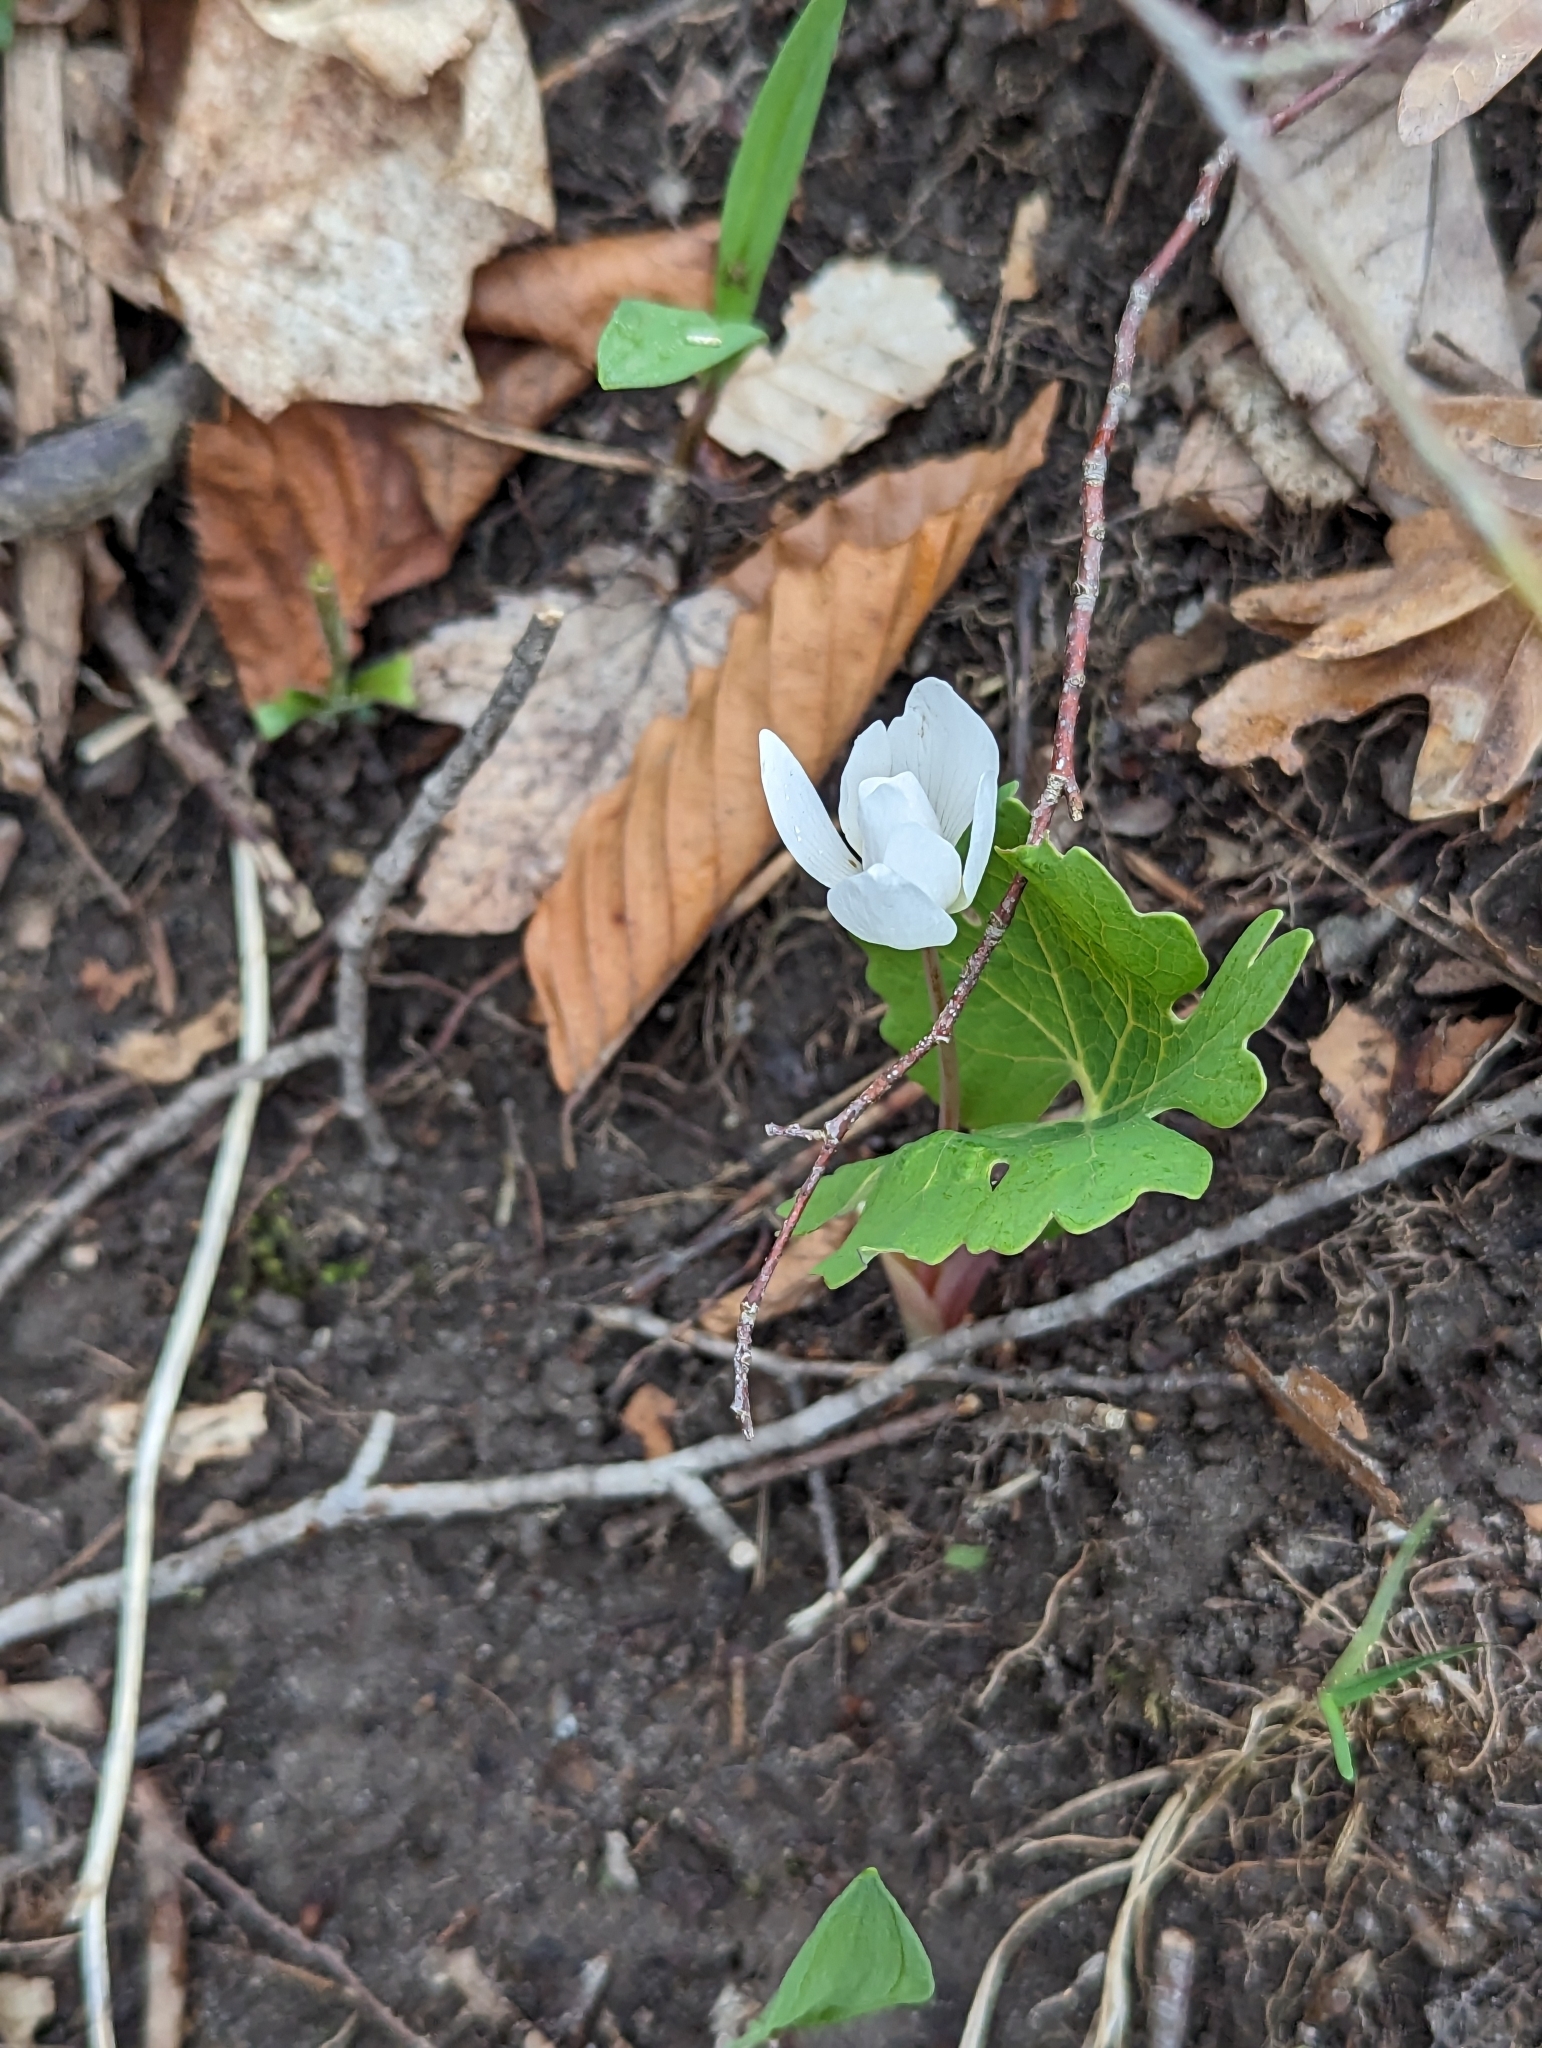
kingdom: Plantae
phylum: Tracheophyta
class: Magnoliopsida
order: Ranunculales
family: Papaveraceae
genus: Sanguinaria
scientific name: Sanguinaria canadensis
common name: Bloodroot
